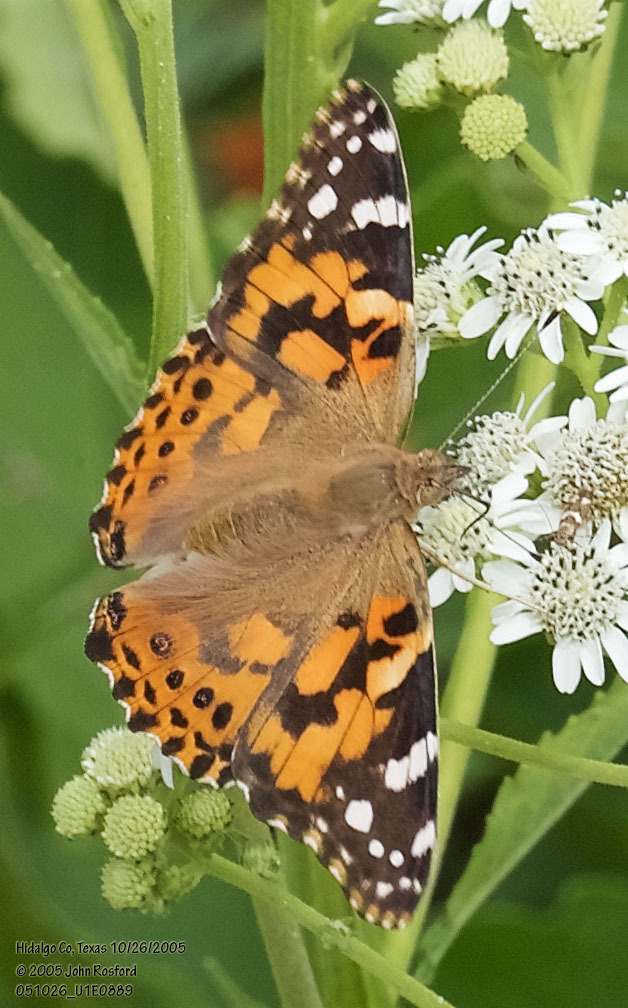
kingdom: Animalia
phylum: Arthropoda
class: Insecta
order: Lepidoptera
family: Nymphalidae
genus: Vanessa
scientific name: Vanessa cardui
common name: Painted lady
